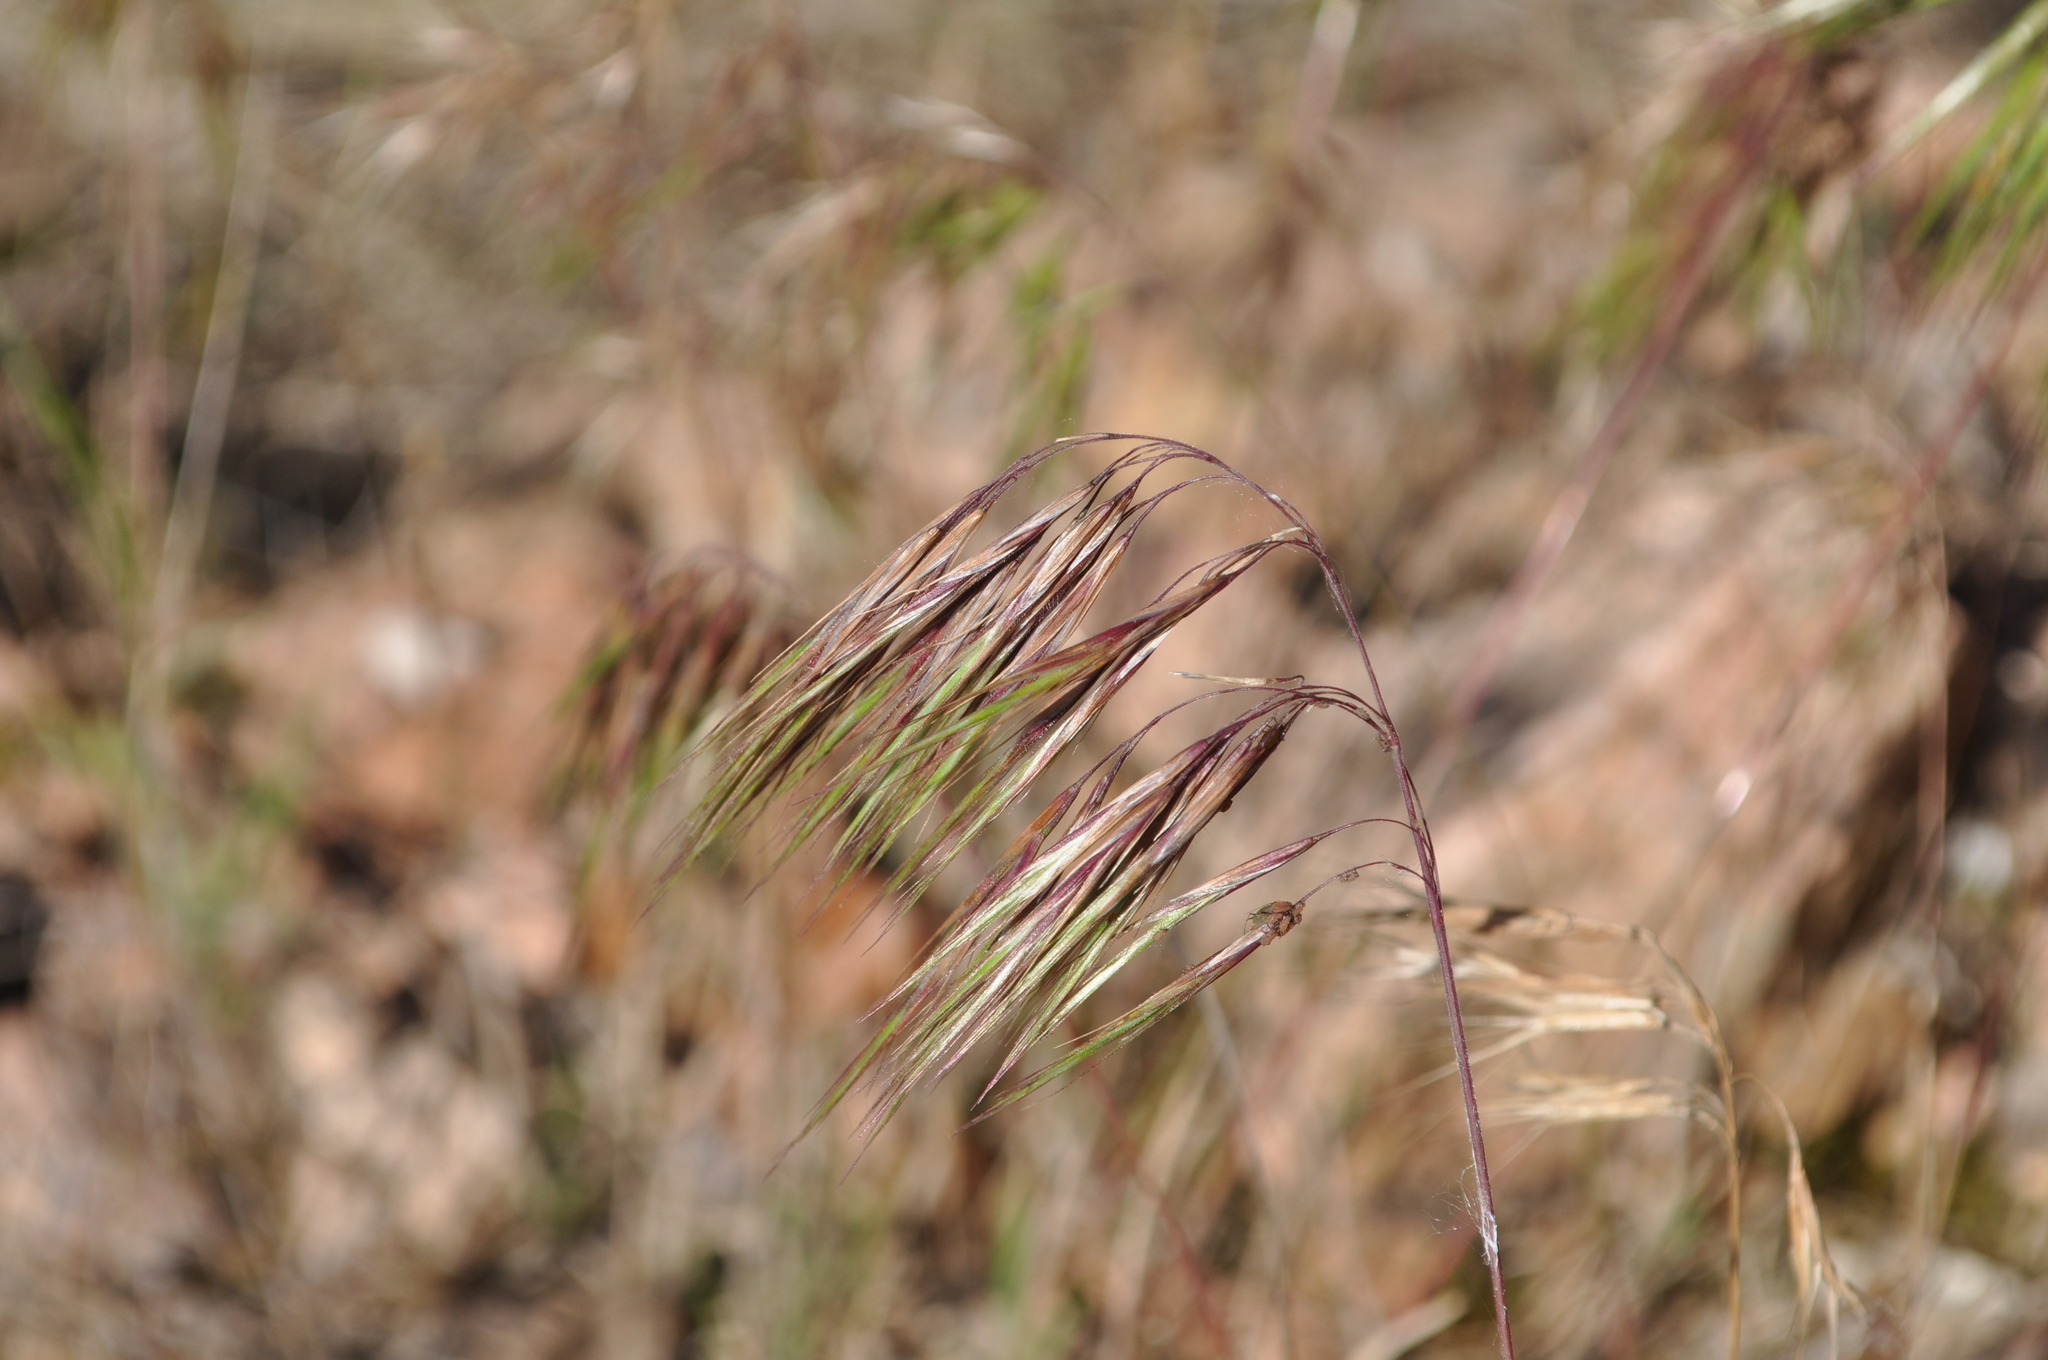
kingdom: Plantae
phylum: Tracheophyta
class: Liliopsida
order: Poales
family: Poaceae
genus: Bromus
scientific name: Bromus tectorum
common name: Cheatgrass
